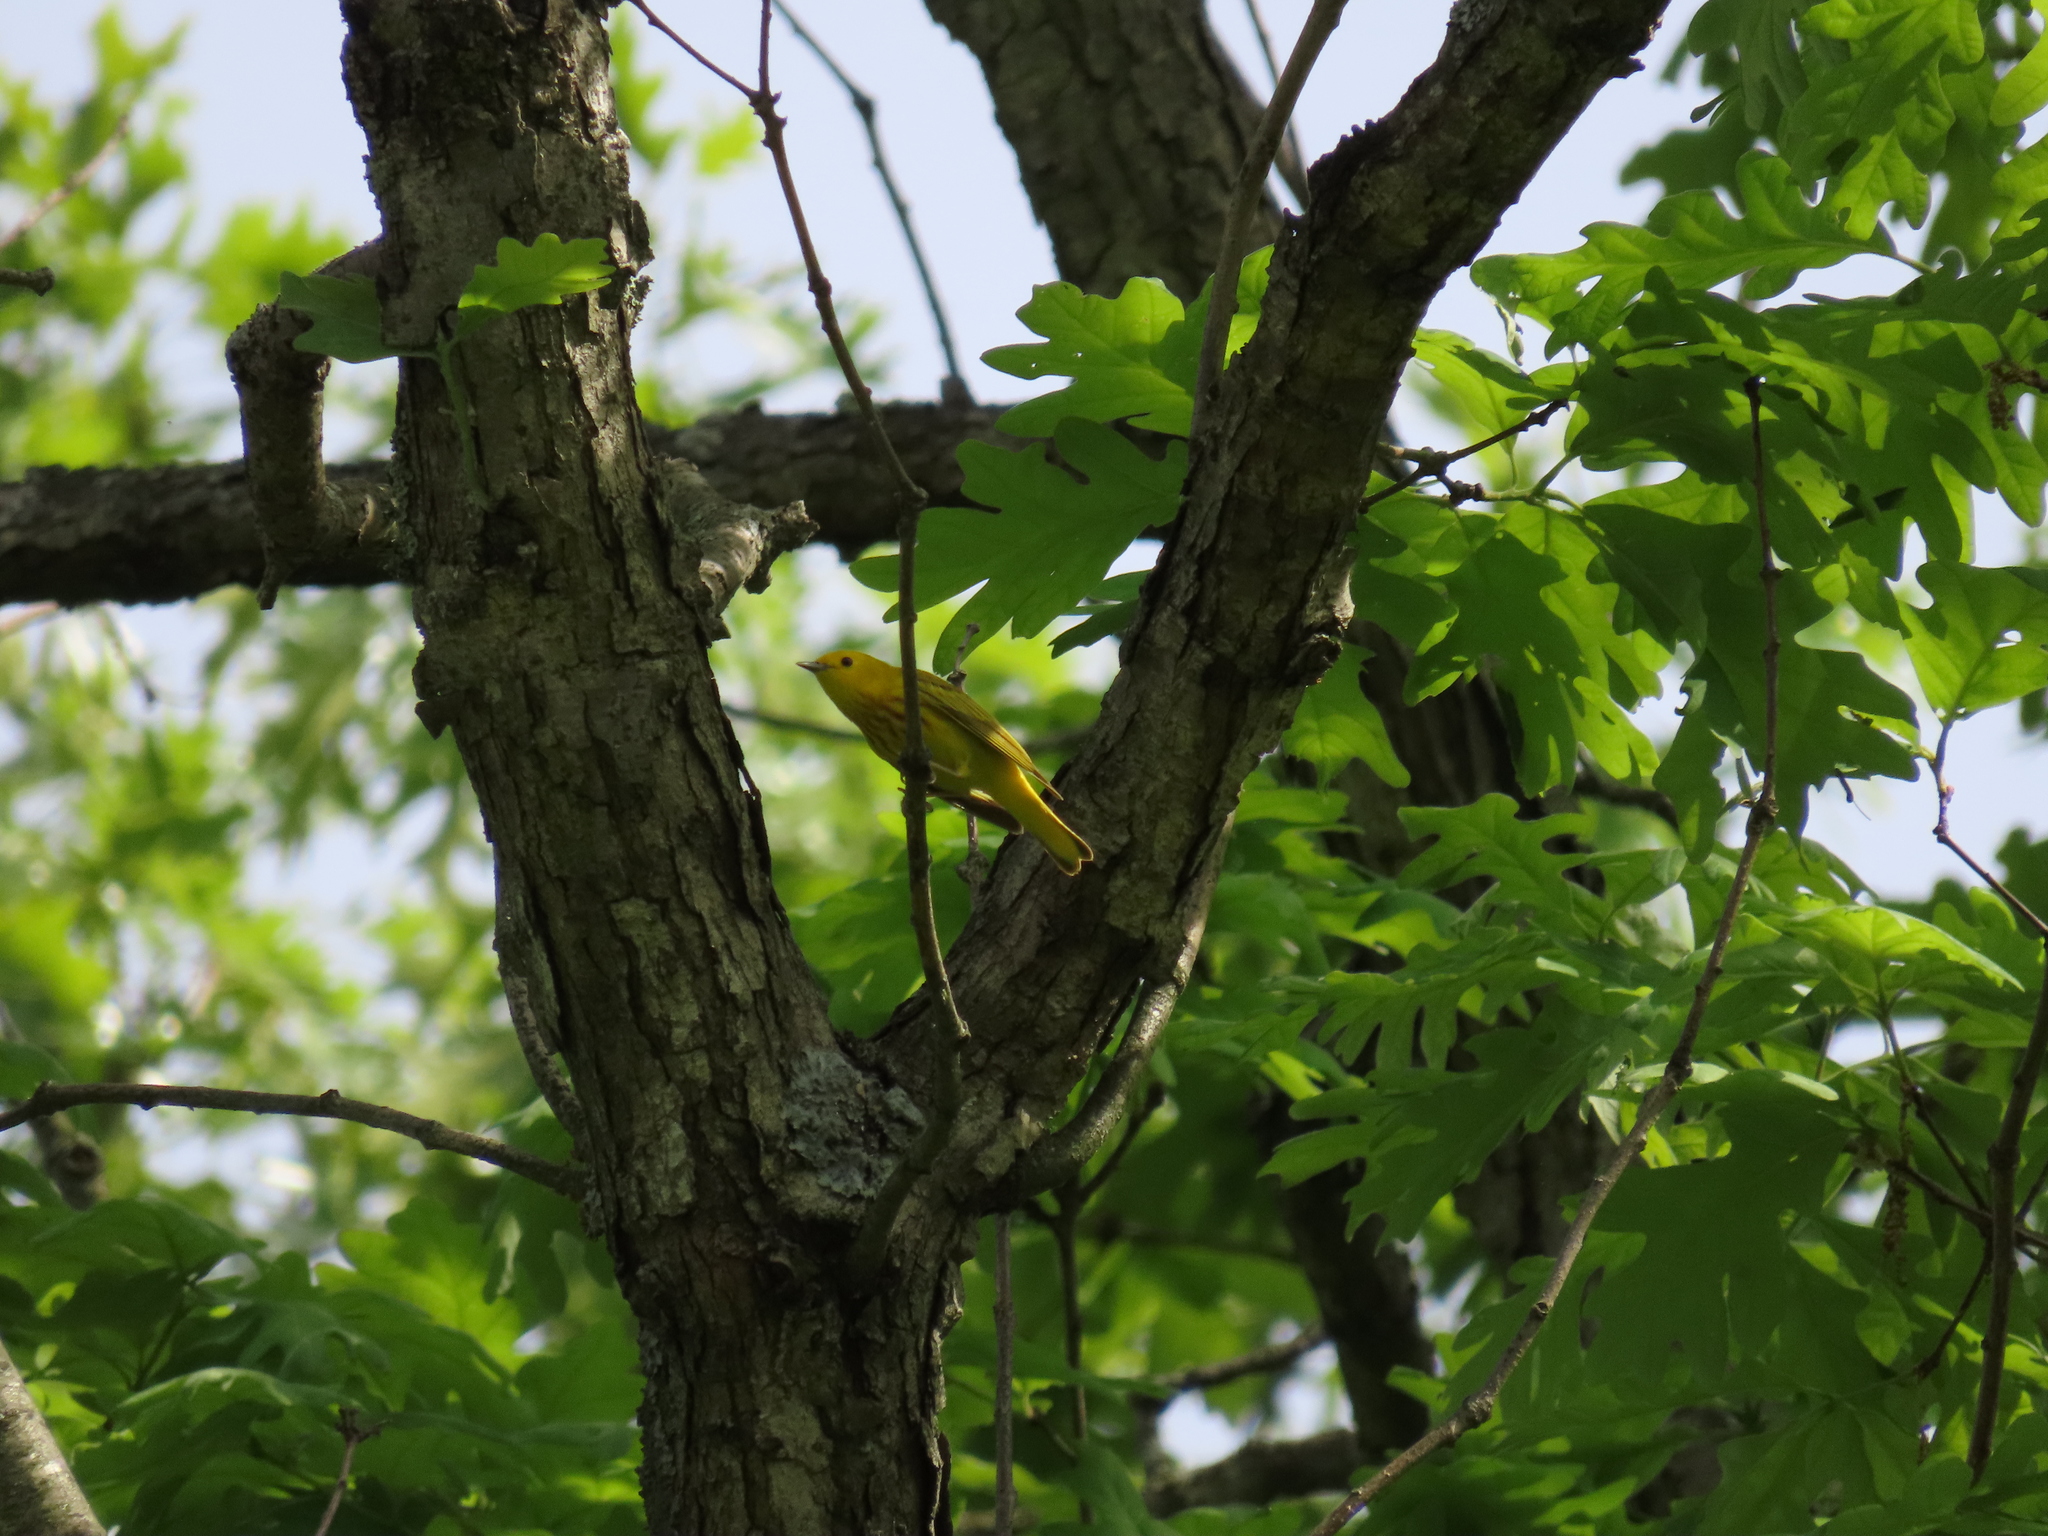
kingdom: Animalia
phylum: Chordata
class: Aves
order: Passeriformes
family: Parulidae
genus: Setophaga
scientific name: Setophaga petechia
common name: Yellow warbler
